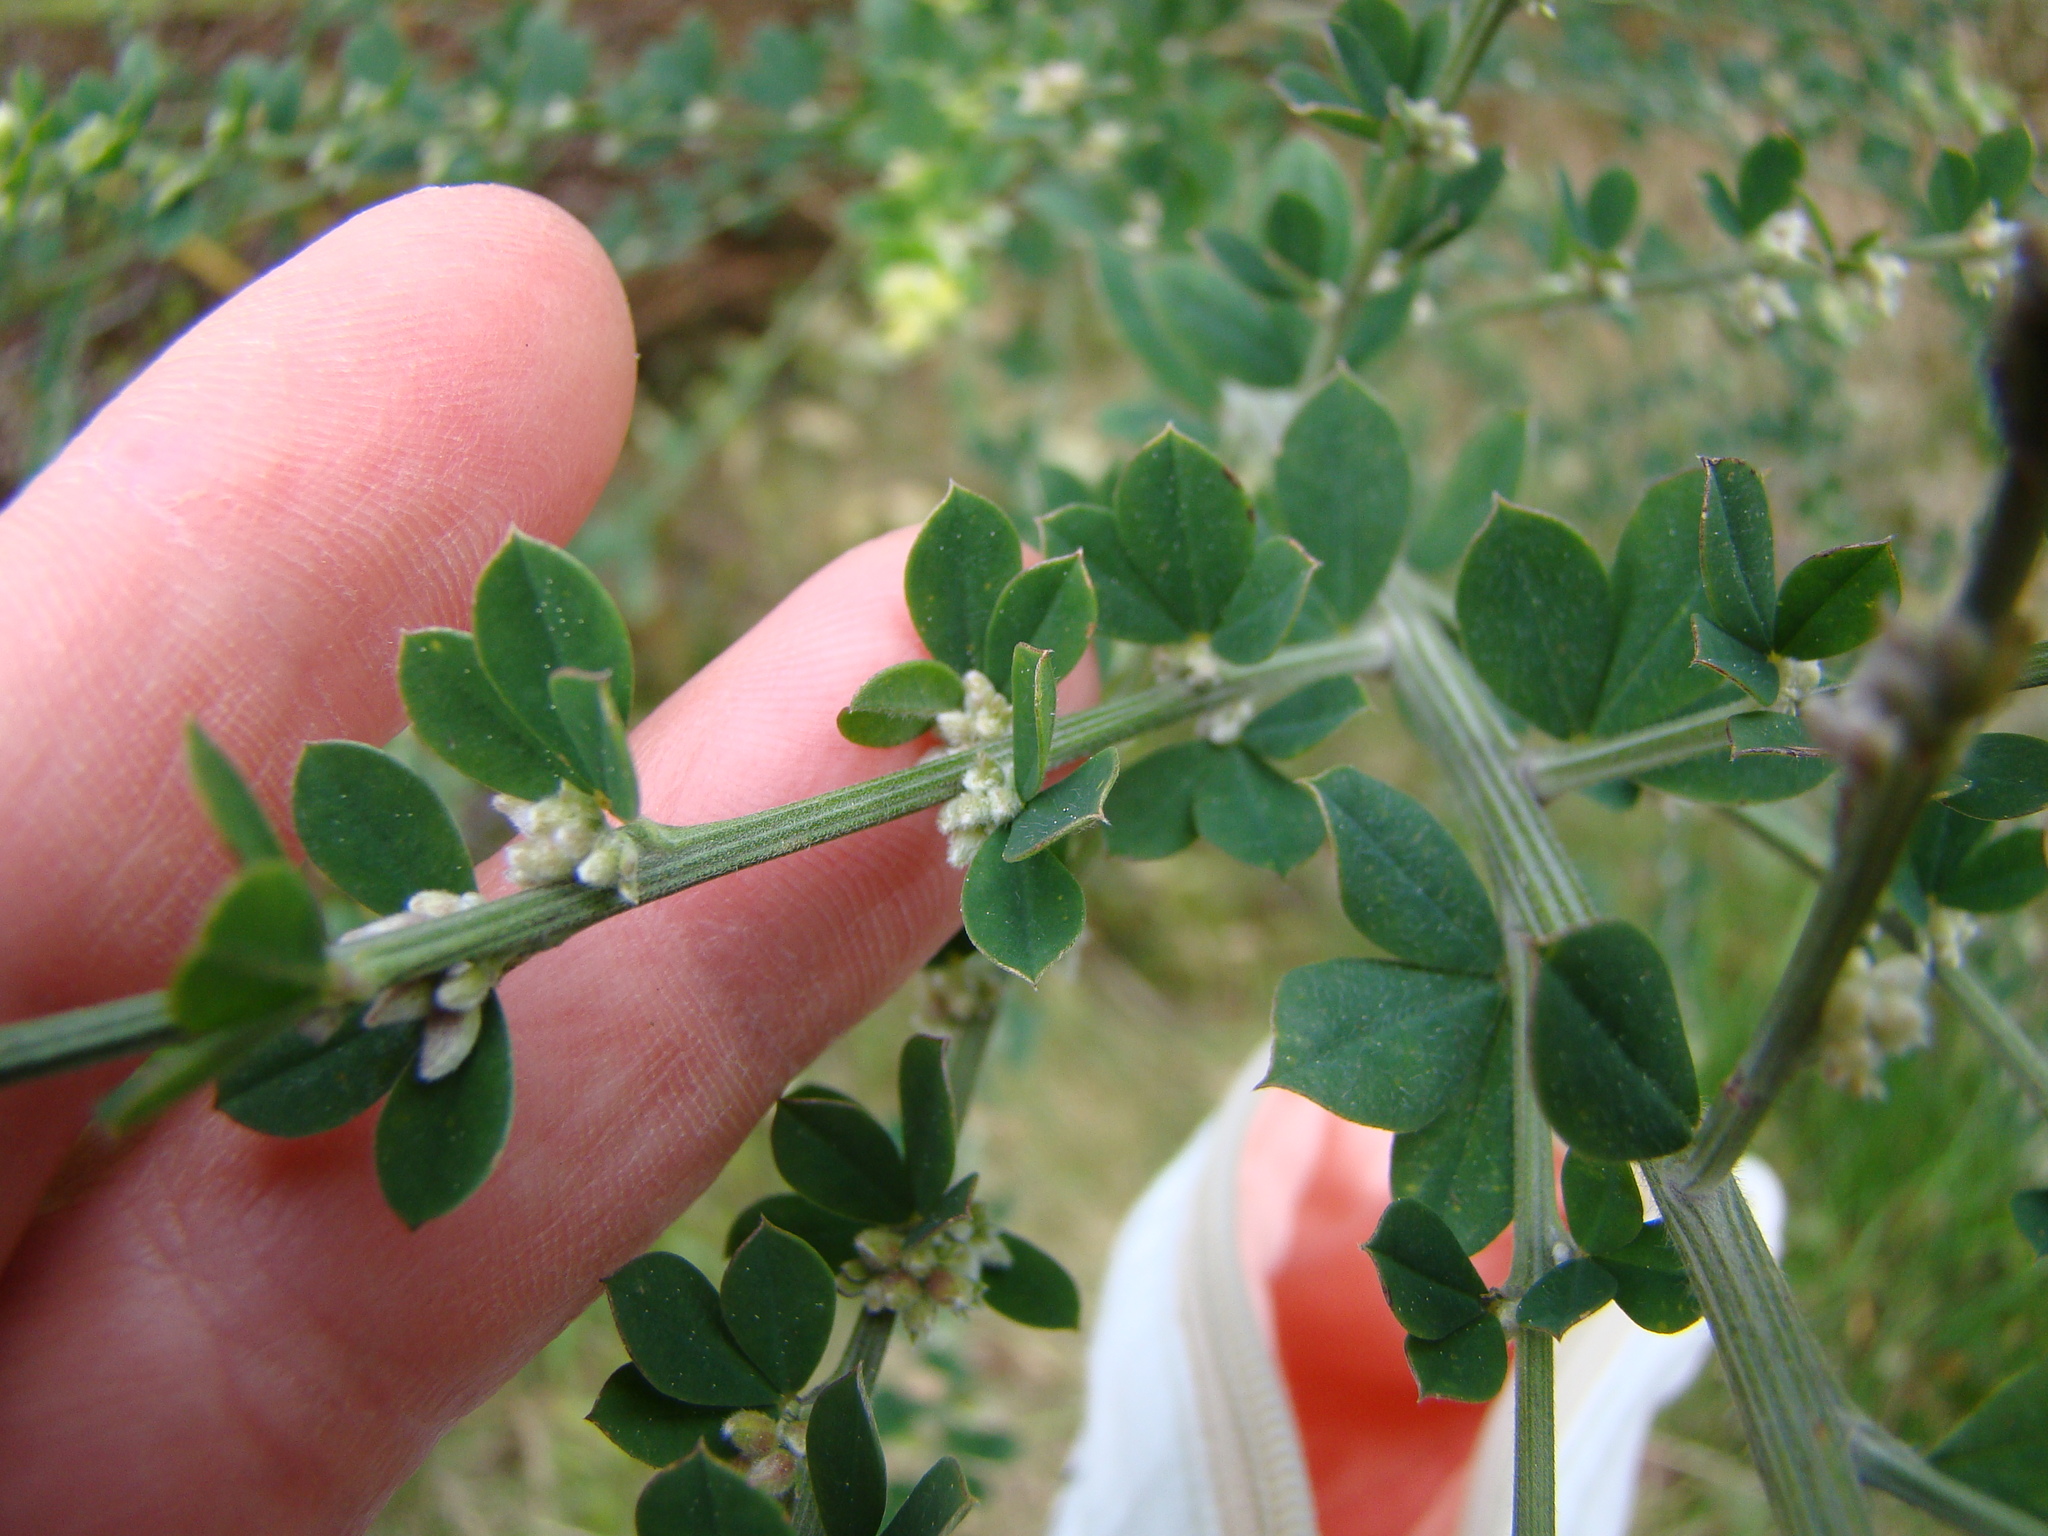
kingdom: Plantae
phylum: Tracheophyta
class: Magnoliopsida
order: Fabales
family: Fabaceae
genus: Genista
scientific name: Genista monspessulana
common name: Montpellier broom
